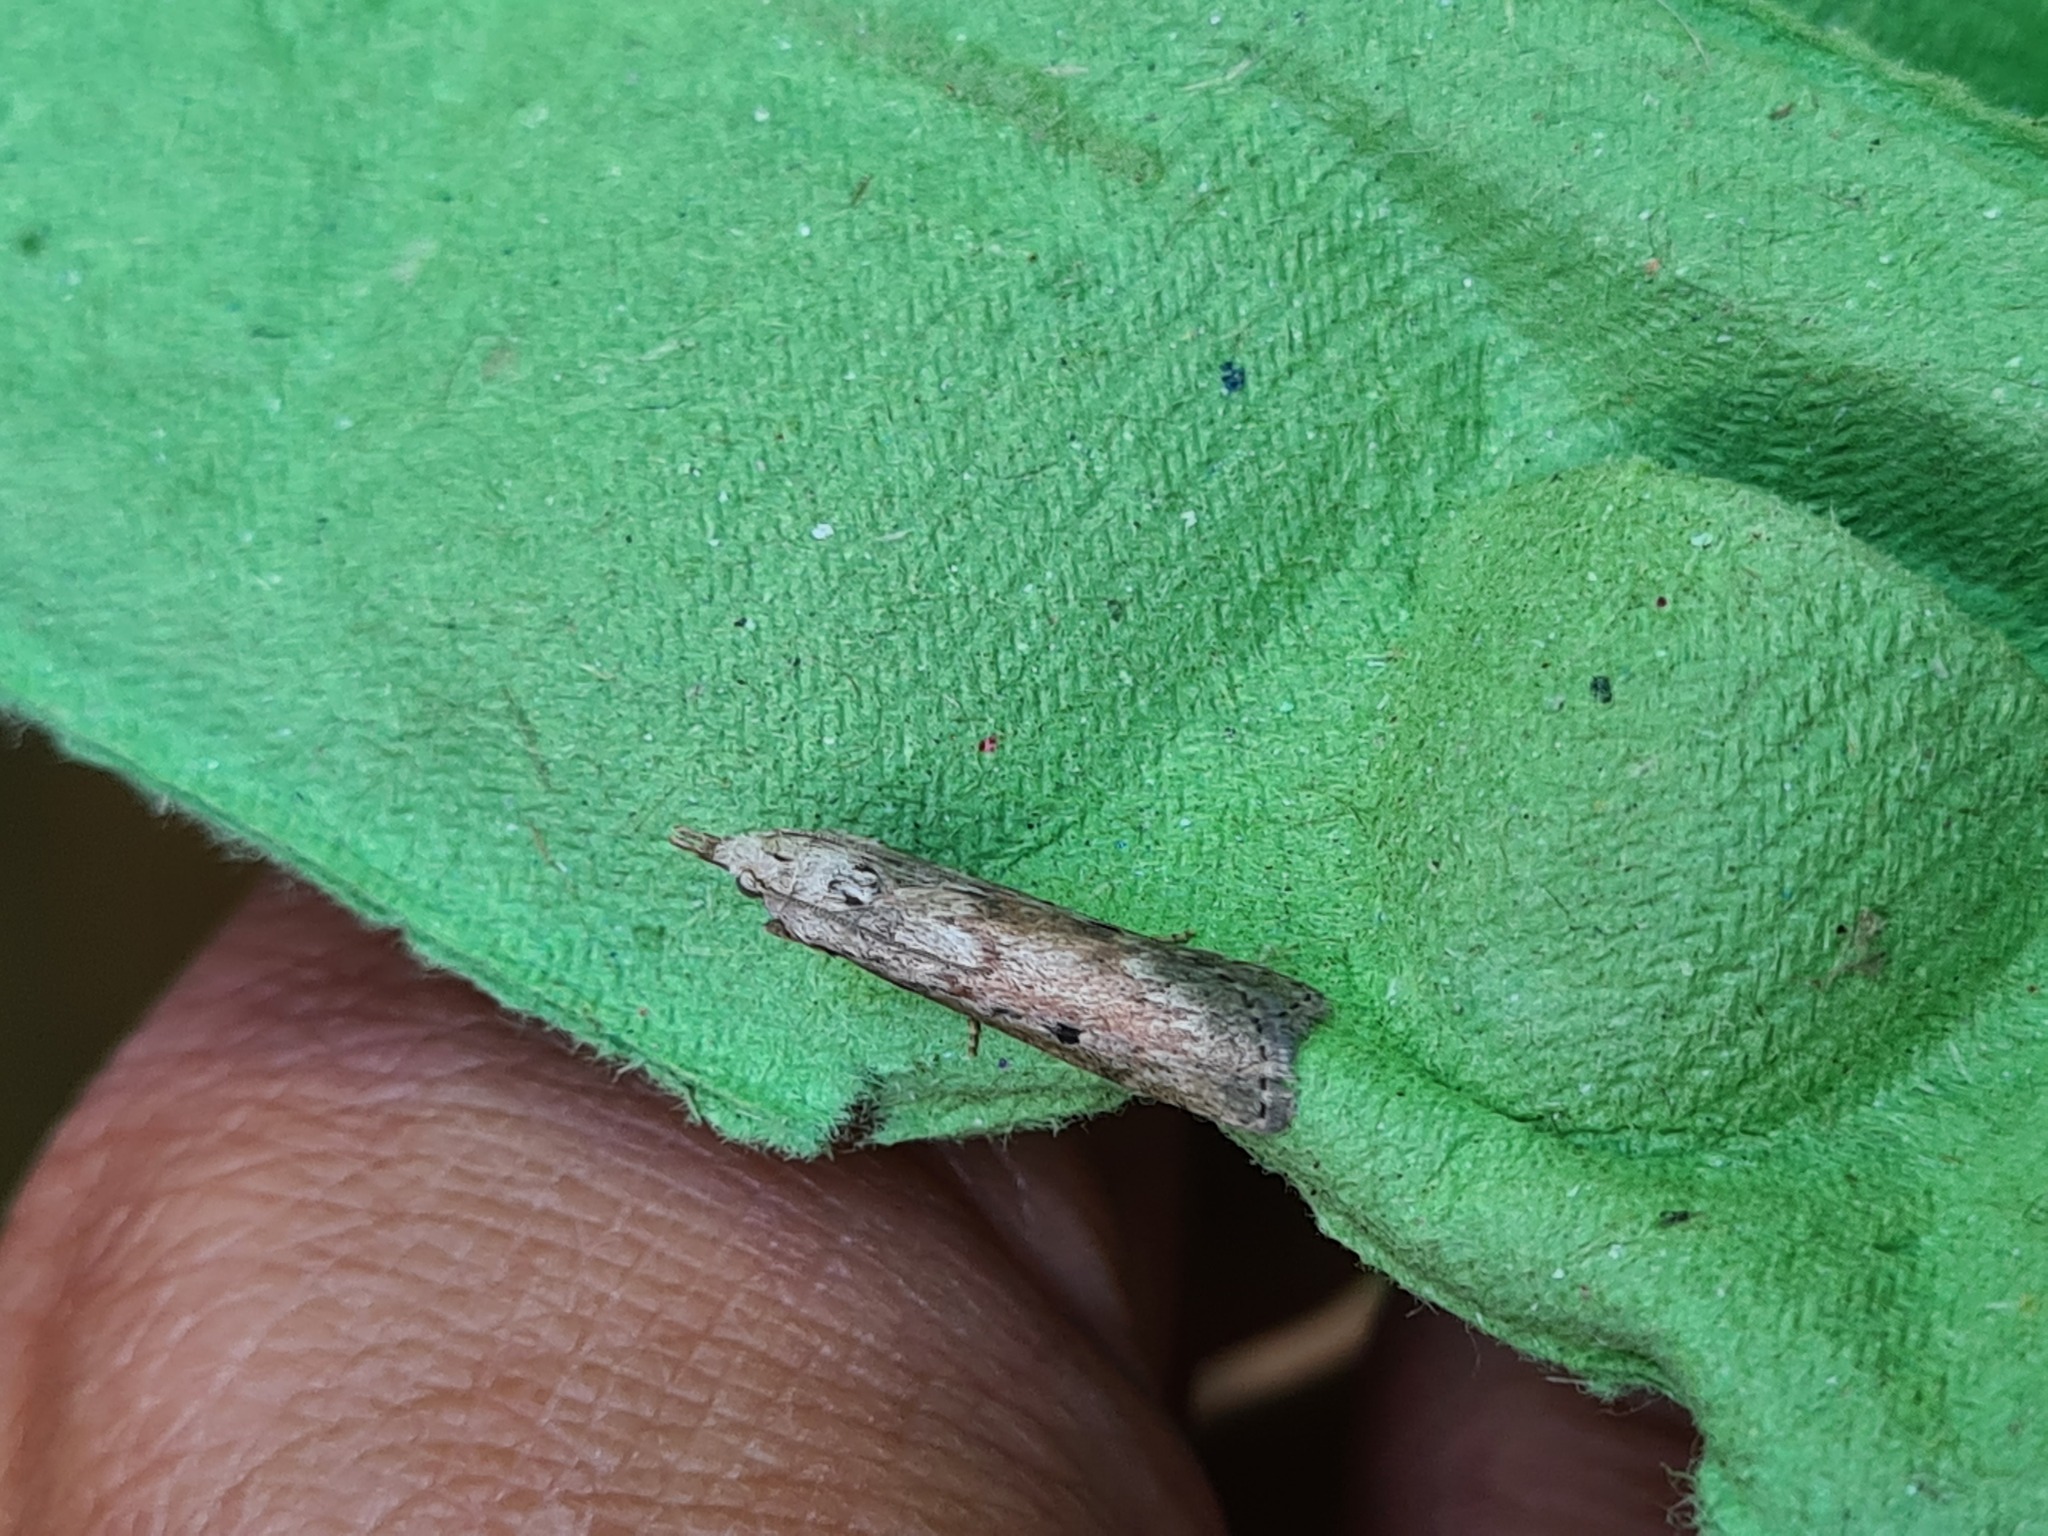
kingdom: Animalia
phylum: Arthropoda
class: Insecta
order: Lepidoptera
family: Pyralidae
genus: Aphomia
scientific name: Aphomia sociella
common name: Bee moth
